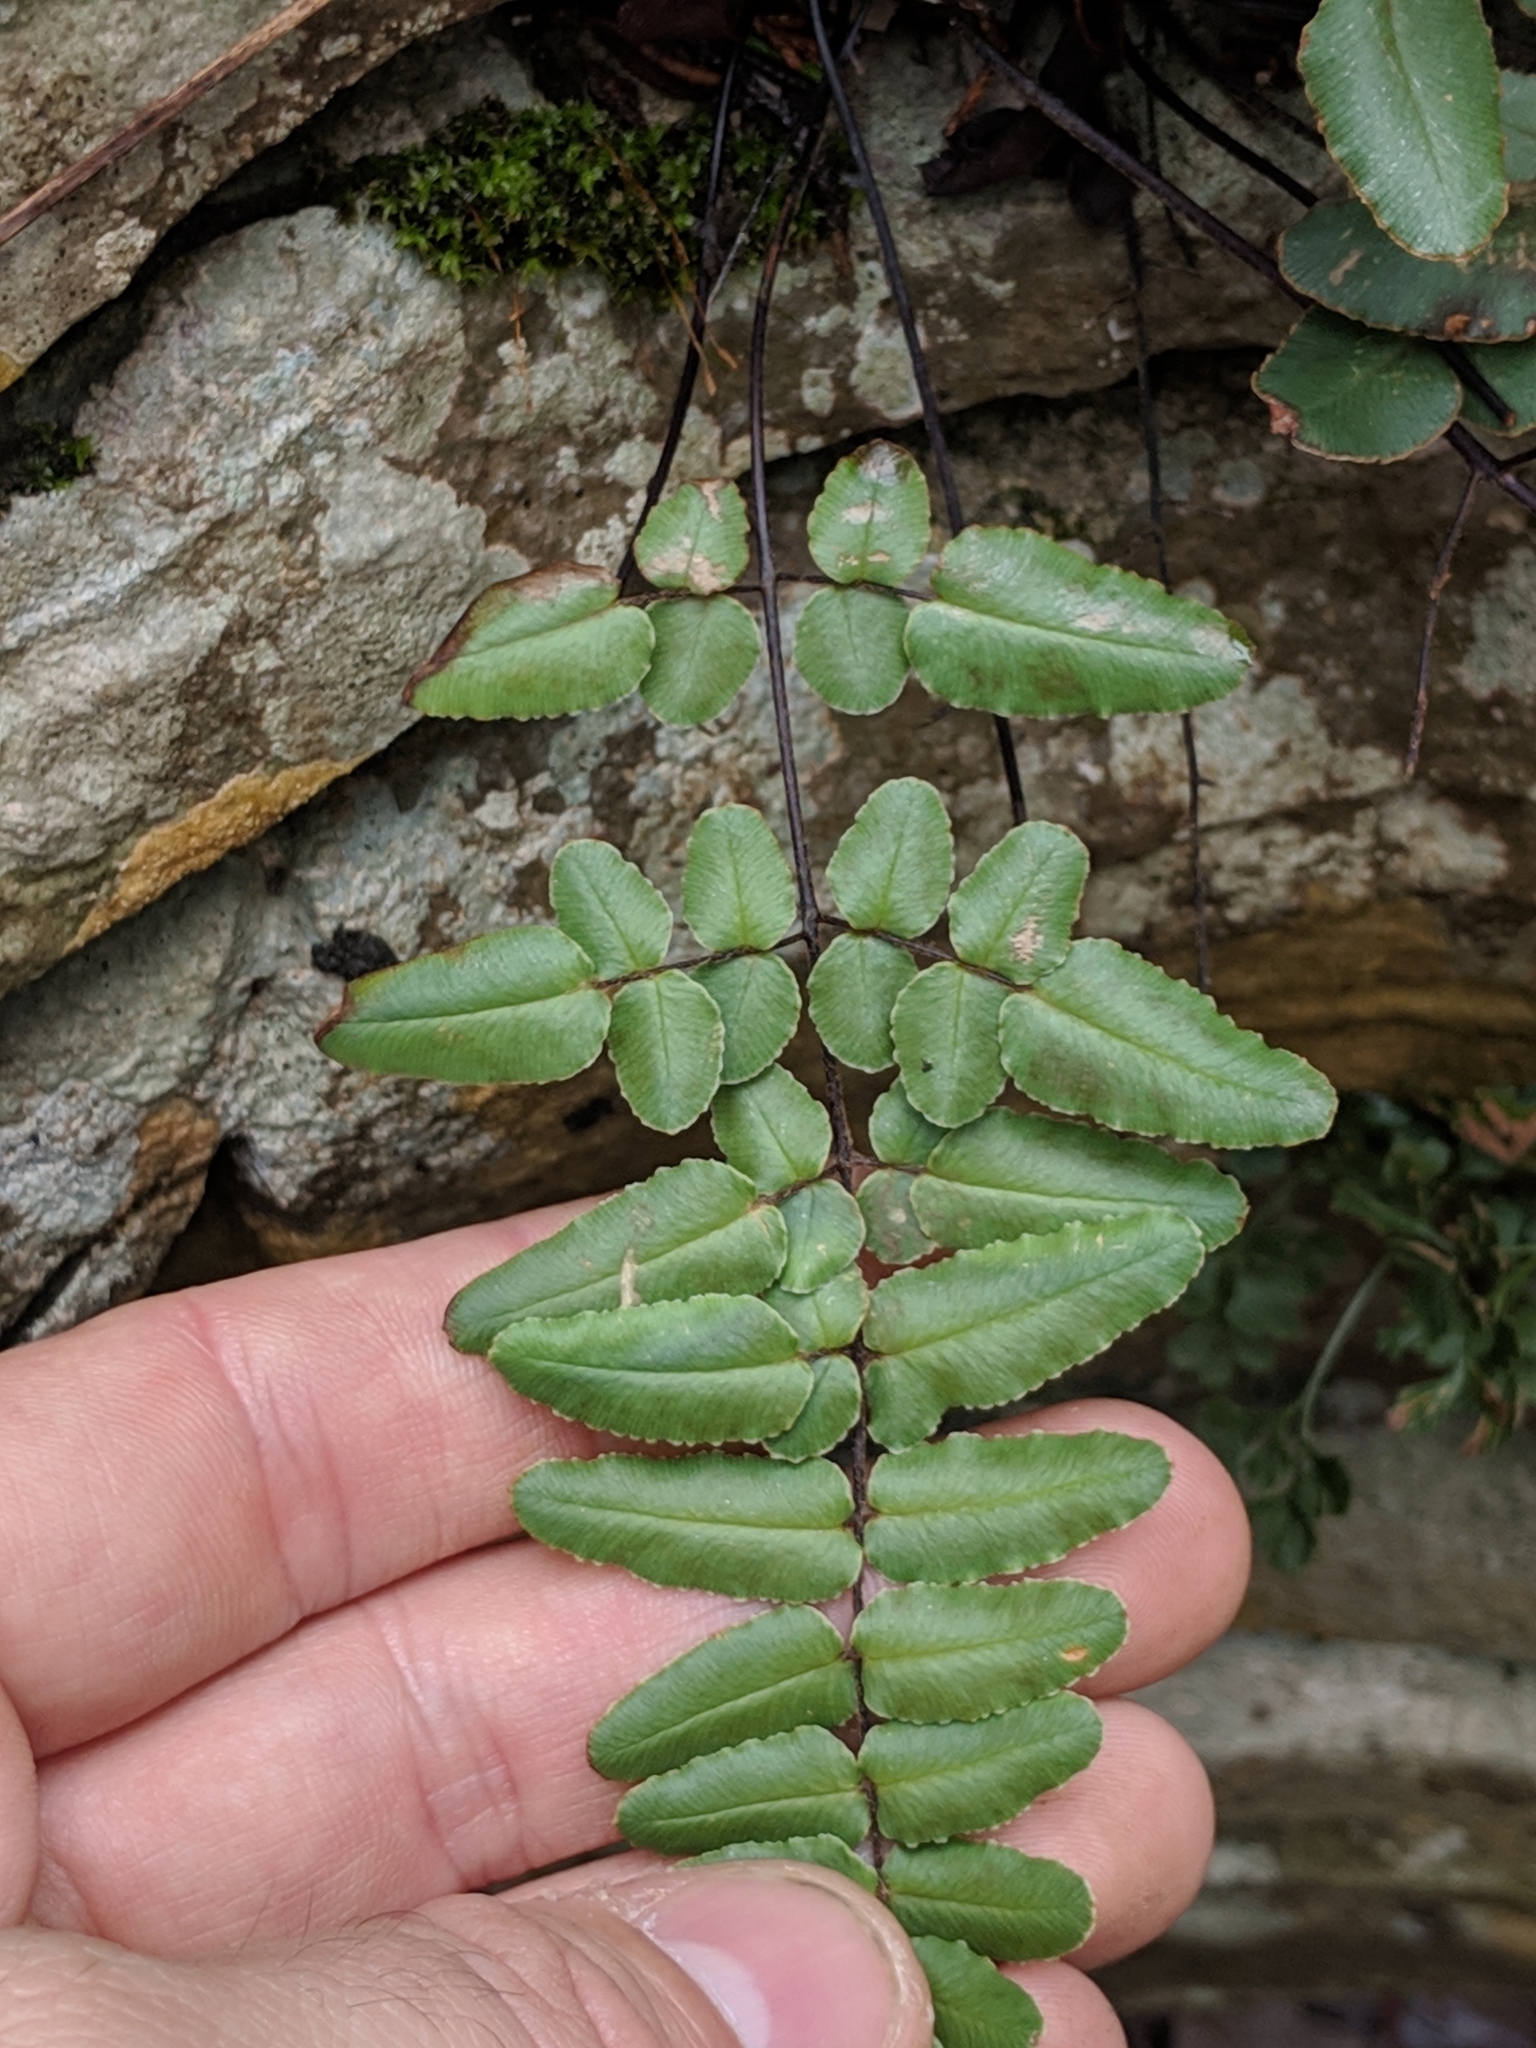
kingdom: Plantae
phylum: Tracheophyta
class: Polypodiopsida
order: Polypodiales
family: Pteridaceae
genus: Pellaea
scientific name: Pellaea atropurpurea
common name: Hairy cliffbrake
